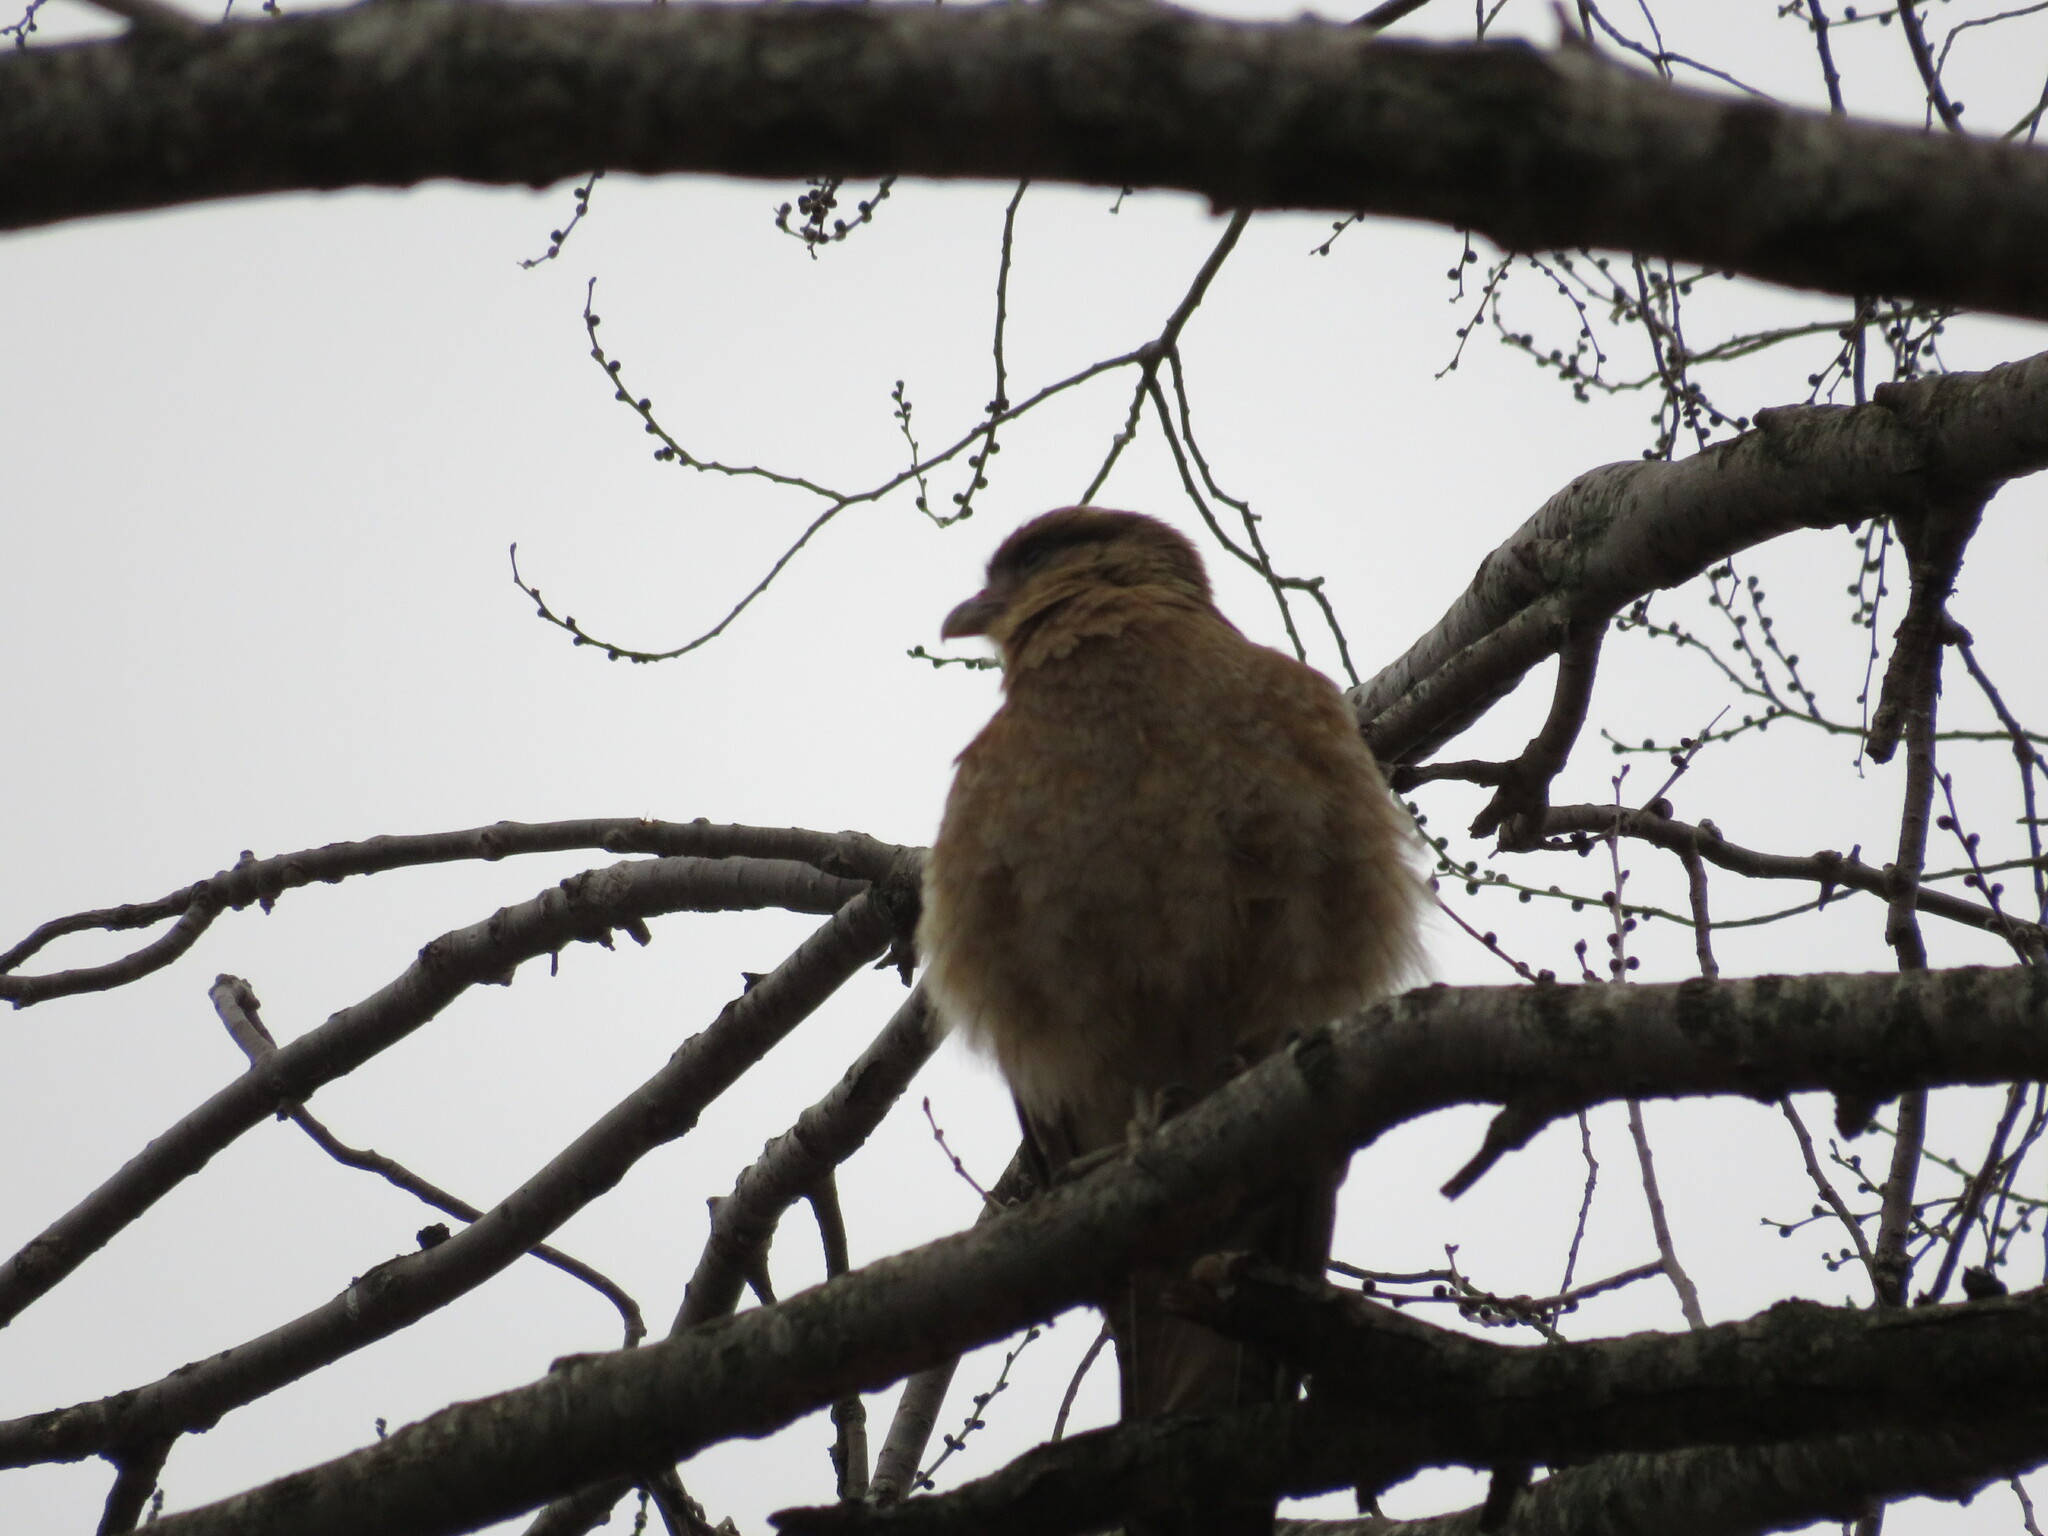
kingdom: Animalia
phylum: Chordata
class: Aves
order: Falconiformes
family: Falconidae
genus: Daptrius
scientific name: Daptrius
